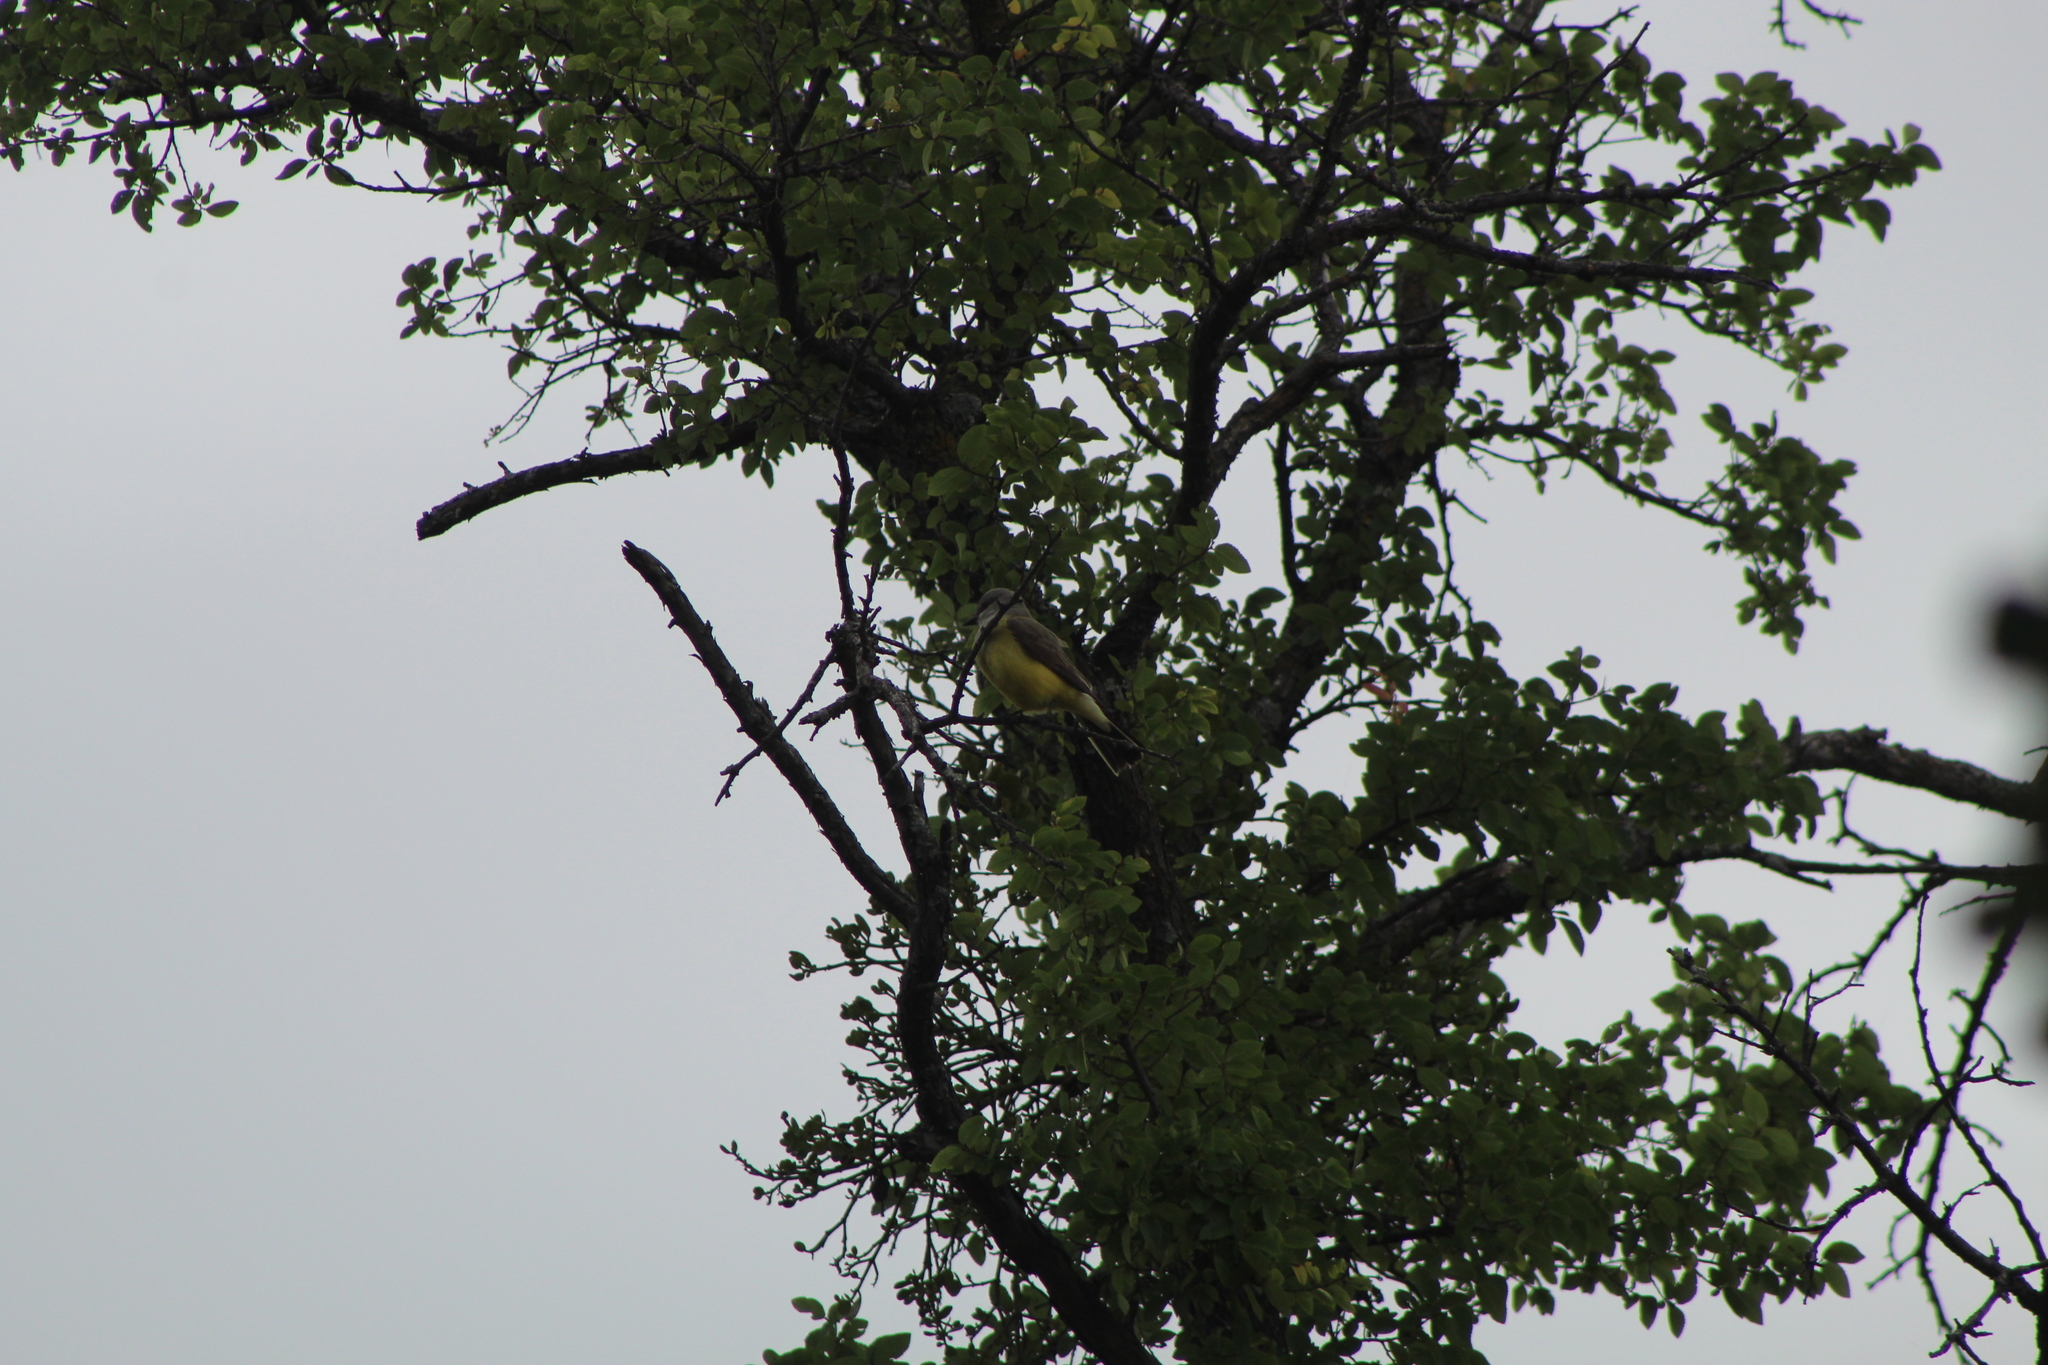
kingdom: Animalia
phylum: Chordata
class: Aves
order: Passeriformes
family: Tyrannidae
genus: Tyrannus
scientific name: Tyrannus verticalis
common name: Western kingbird
